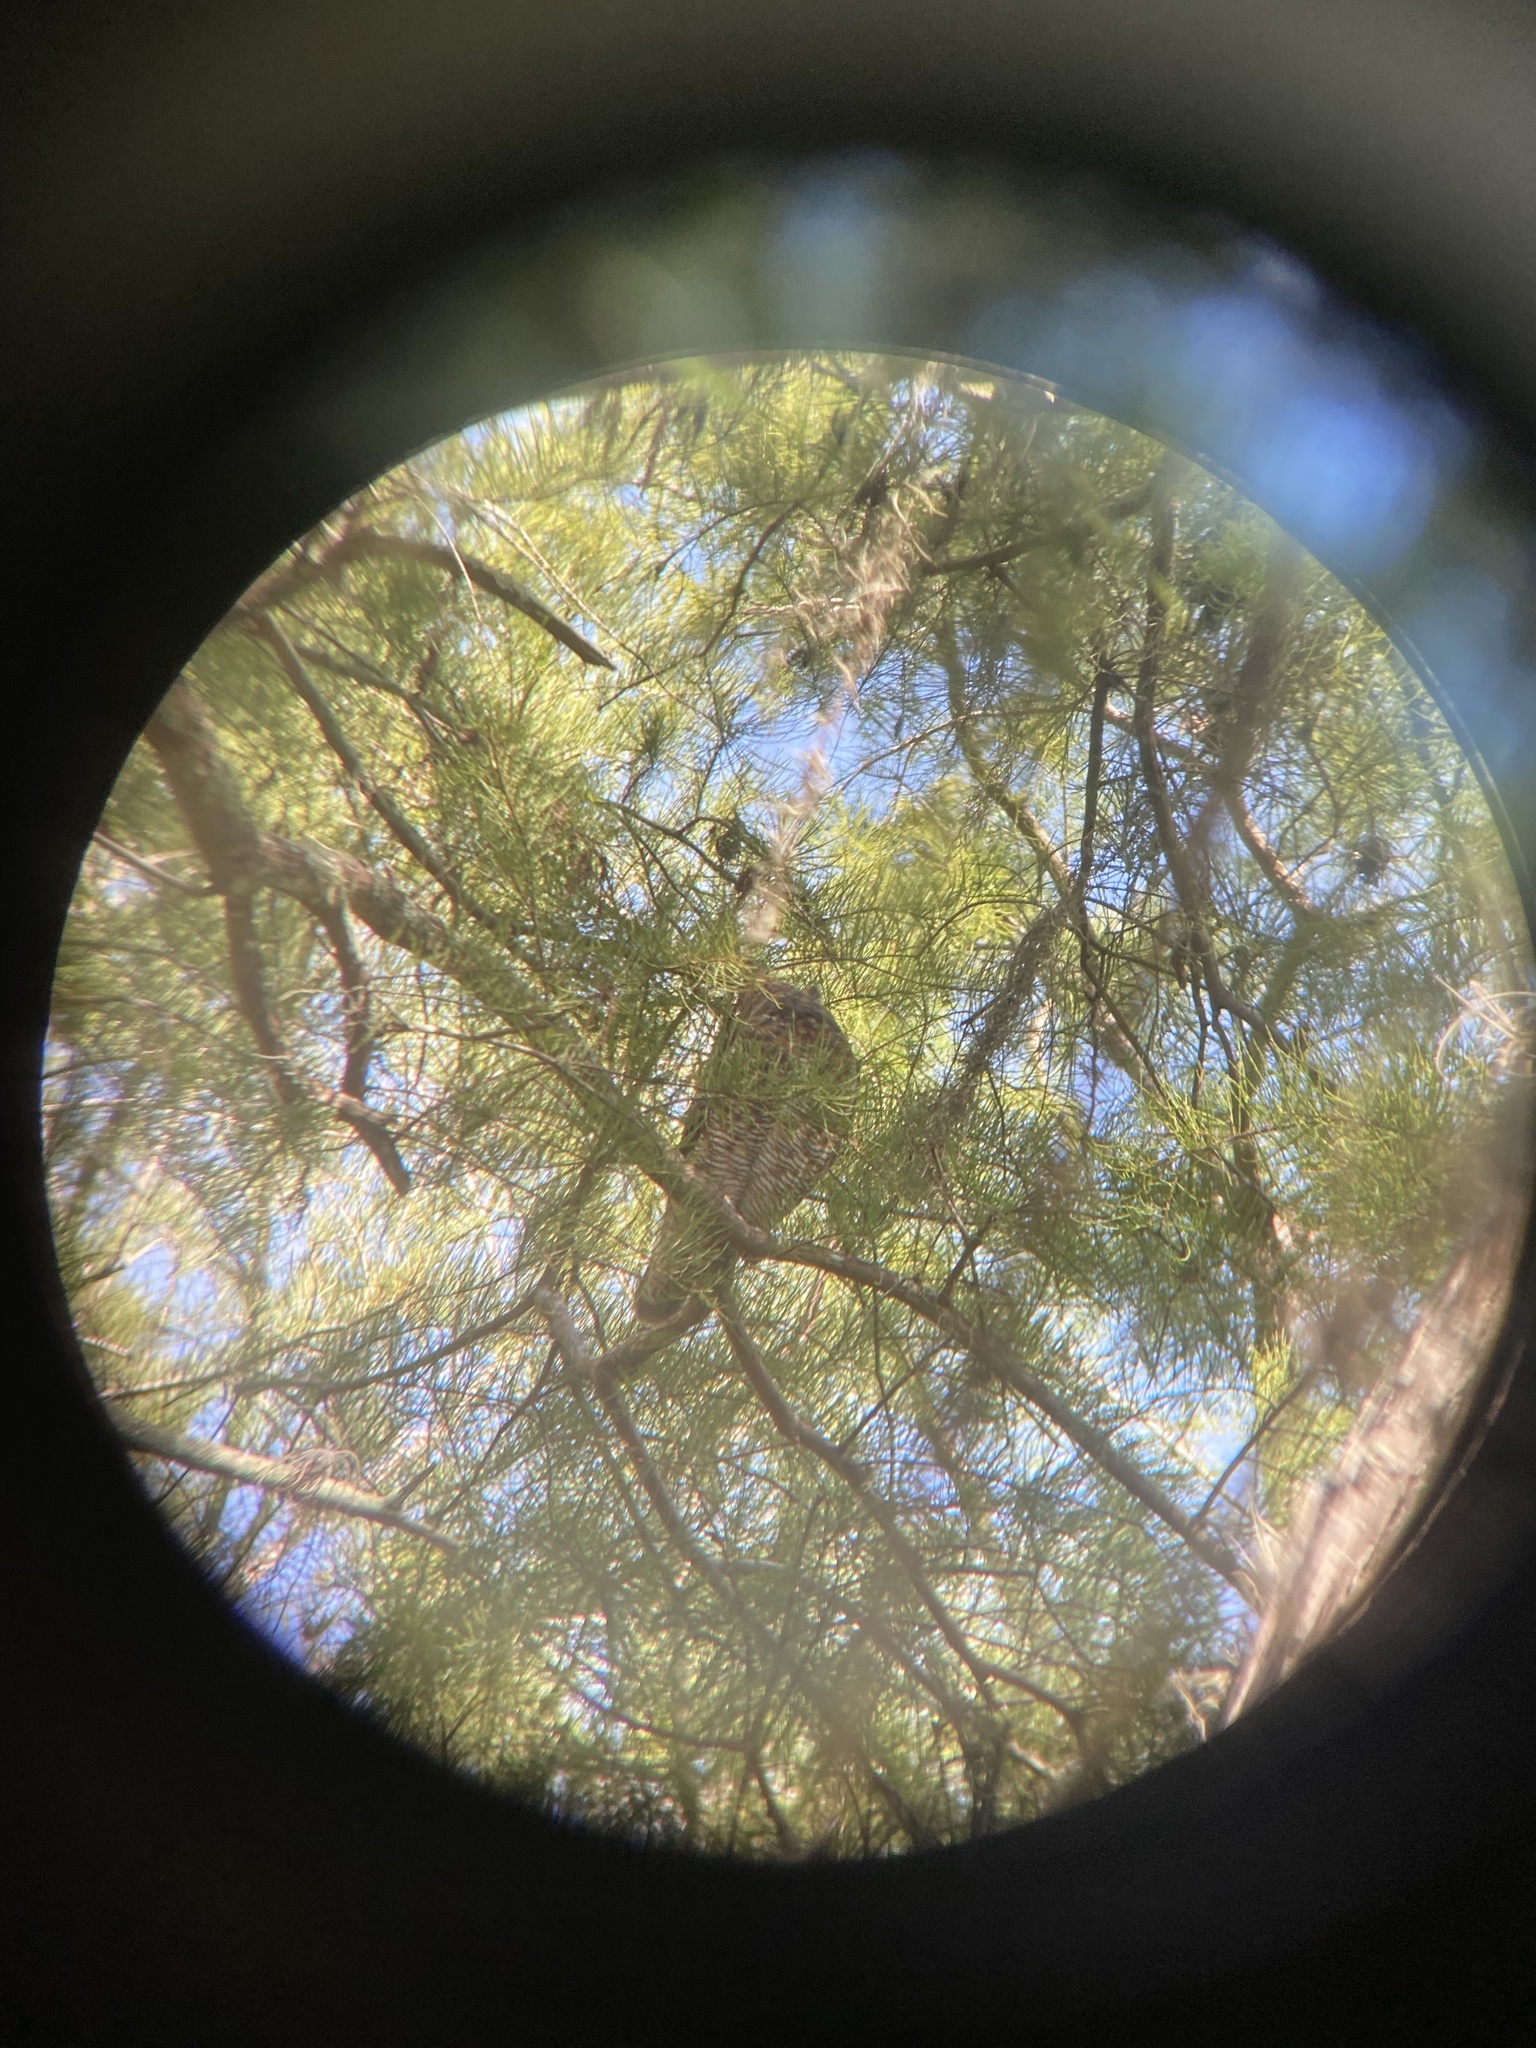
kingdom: Animalia
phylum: Chordata
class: Aves
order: Strigiformes
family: Strigidae
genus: Bubo
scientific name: Bubo virginianus
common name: Great horned owl
